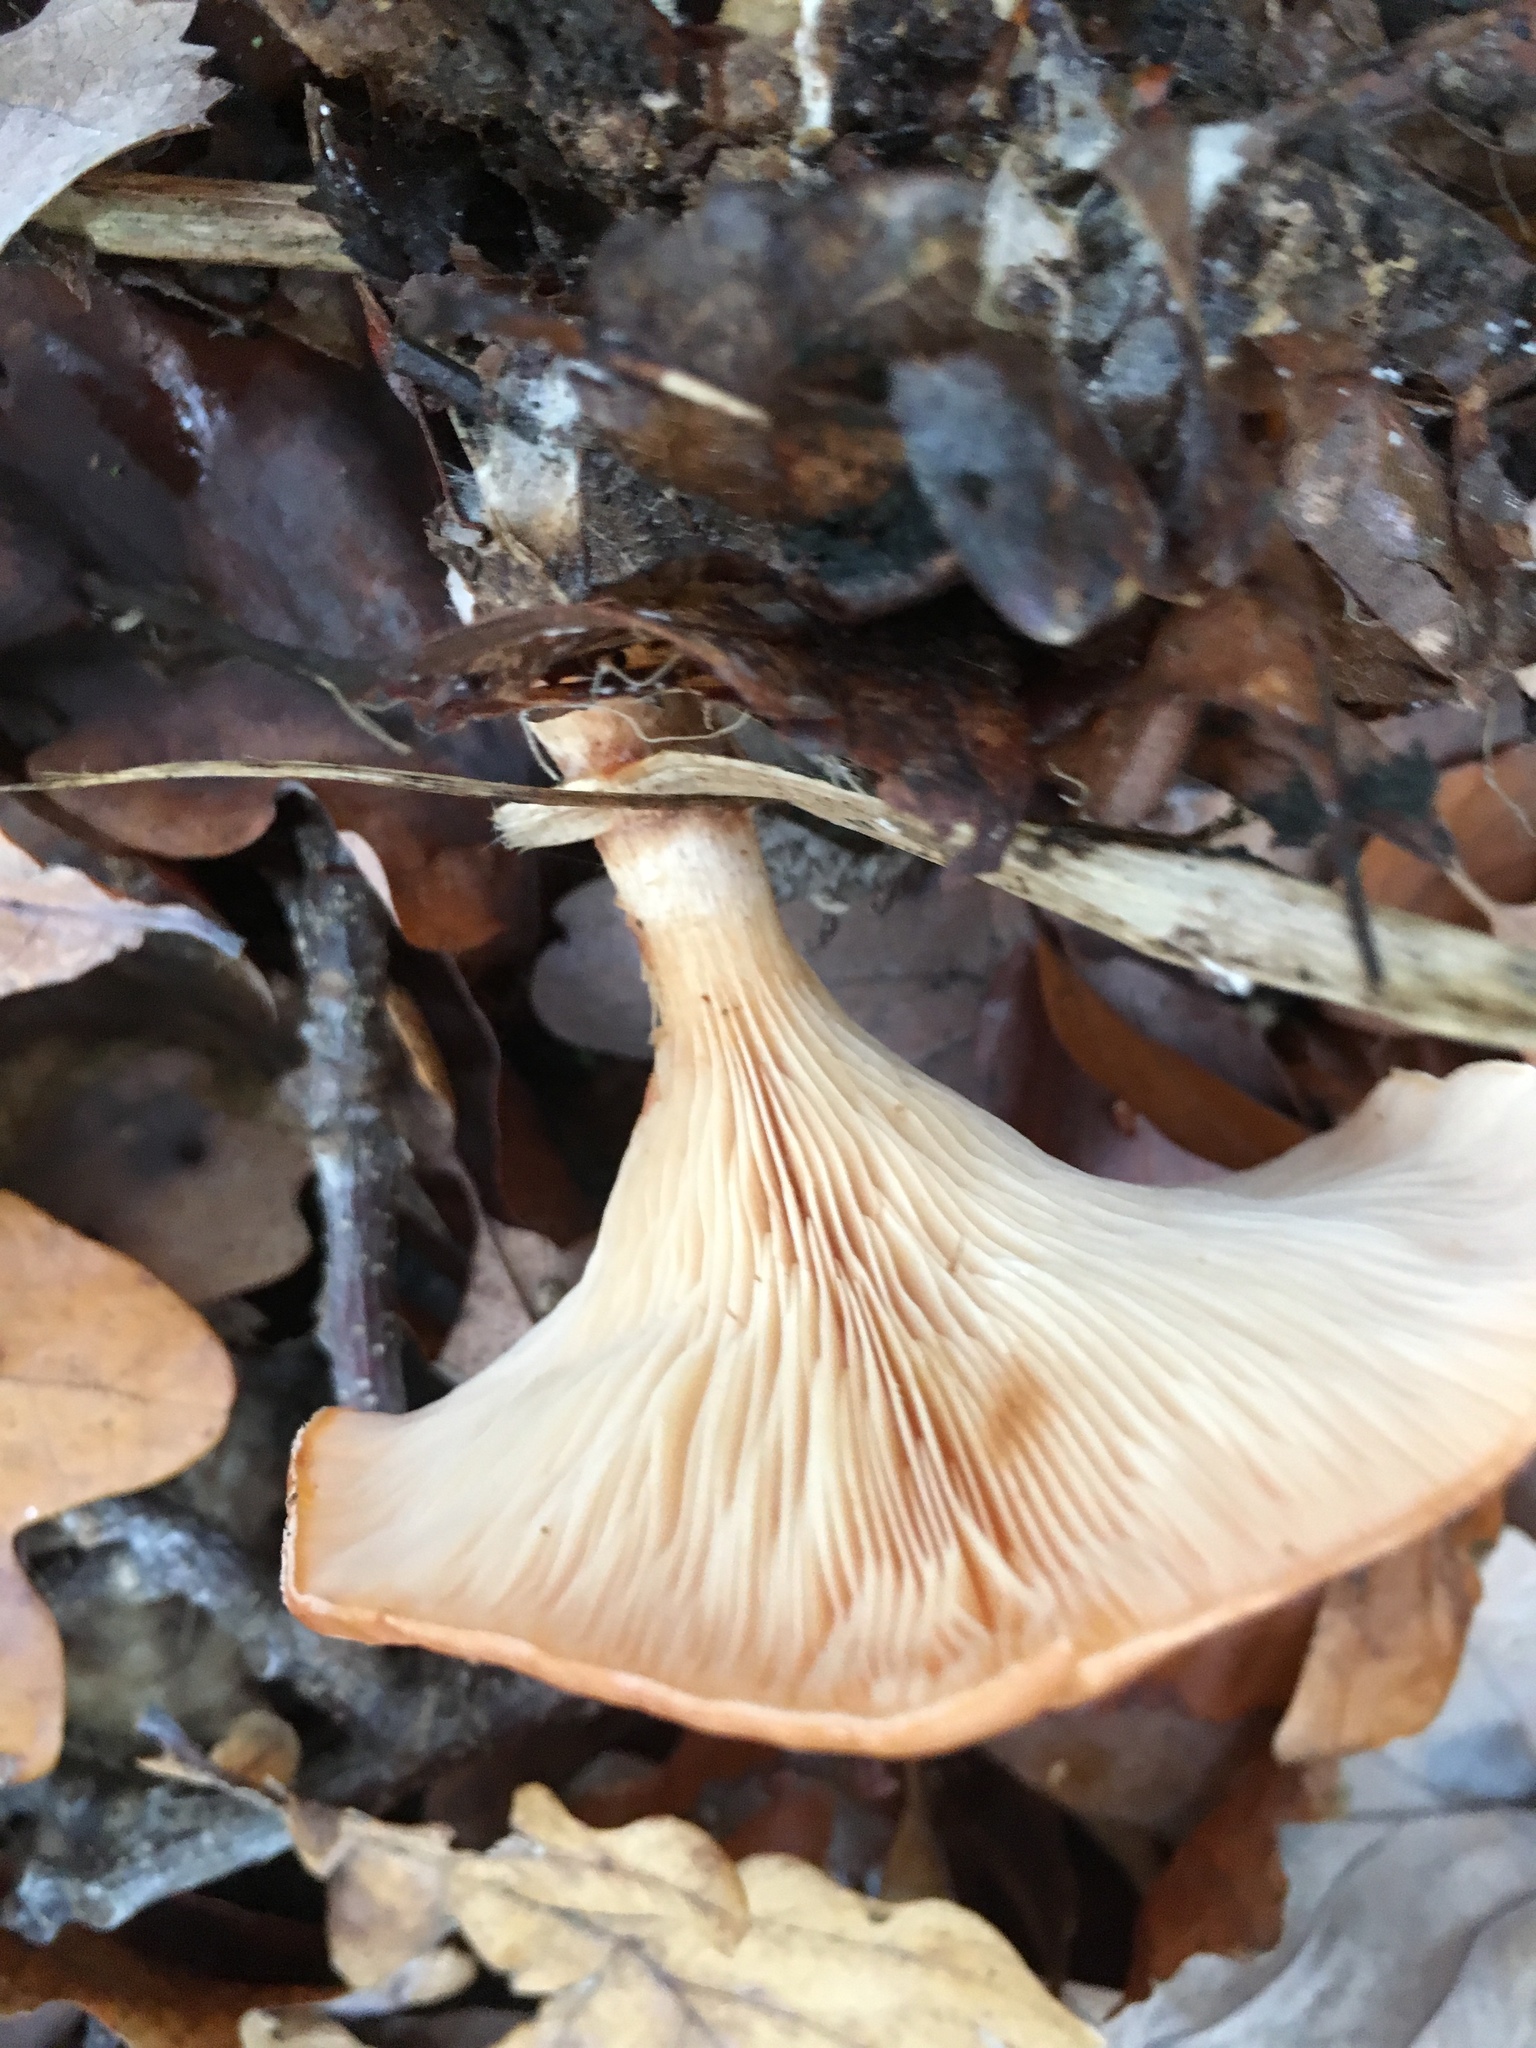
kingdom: Fungi
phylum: Basidiomycota
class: Agaricomycetes
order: Agaricales
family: Tricholomataceae
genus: Infundibulicybe
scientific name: Infundibulicybe gibba
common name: Common funnel
